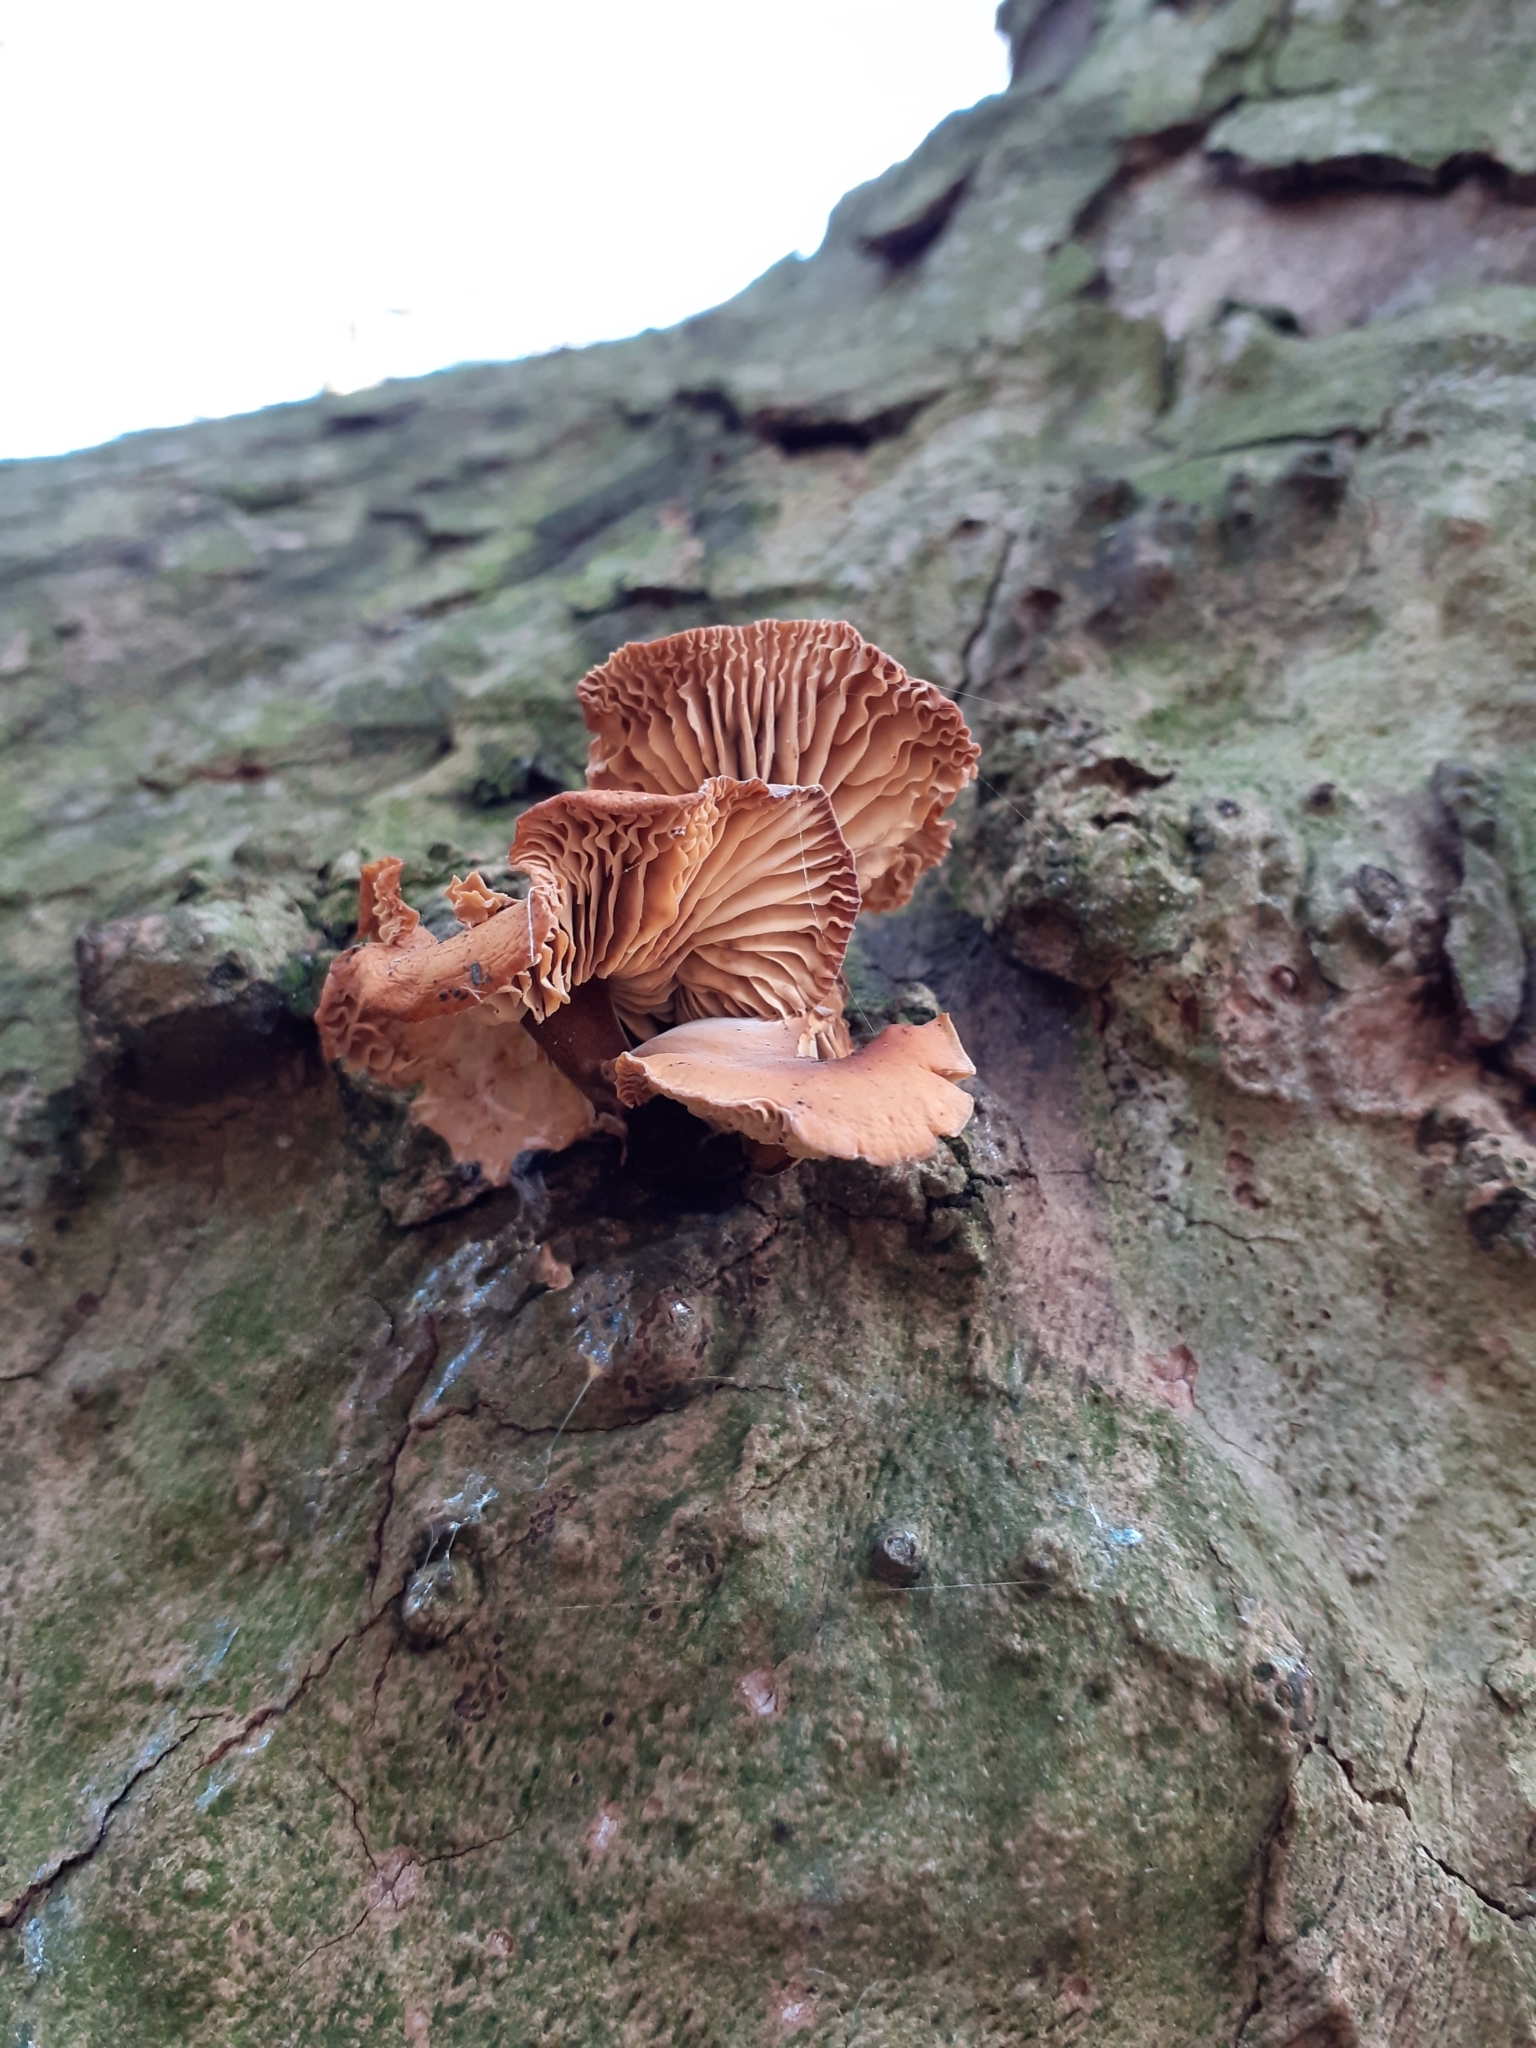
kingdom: Fungi
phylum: Basidiomycota
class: Agaricomycetes
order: Agaricales
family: Physalacriaceae
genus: Flammulina
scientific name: Flammulina
